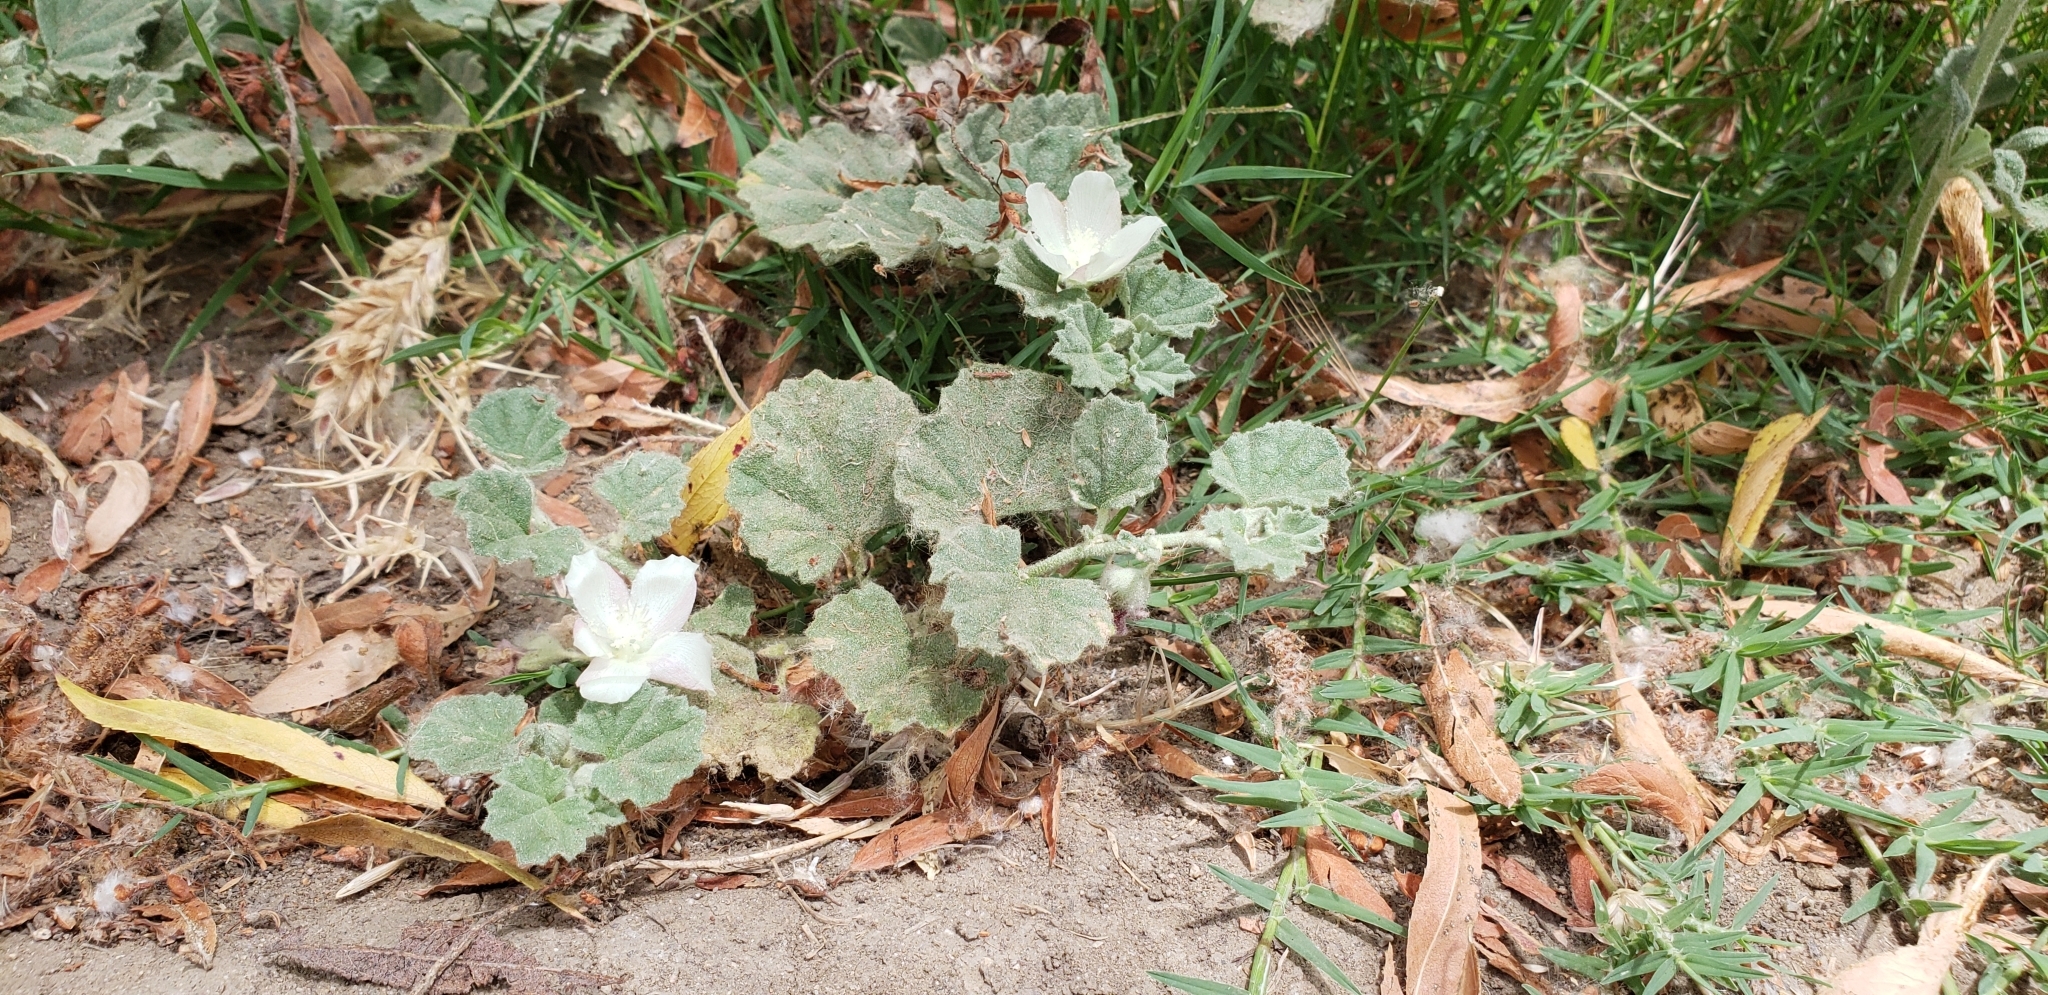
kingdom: Plantae
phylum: Tracheophyta
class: Magnoliopsida
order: Malvales
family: Malvaceae
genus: Malvella
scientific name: Malvella leprosa
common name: Alkali-mallow
